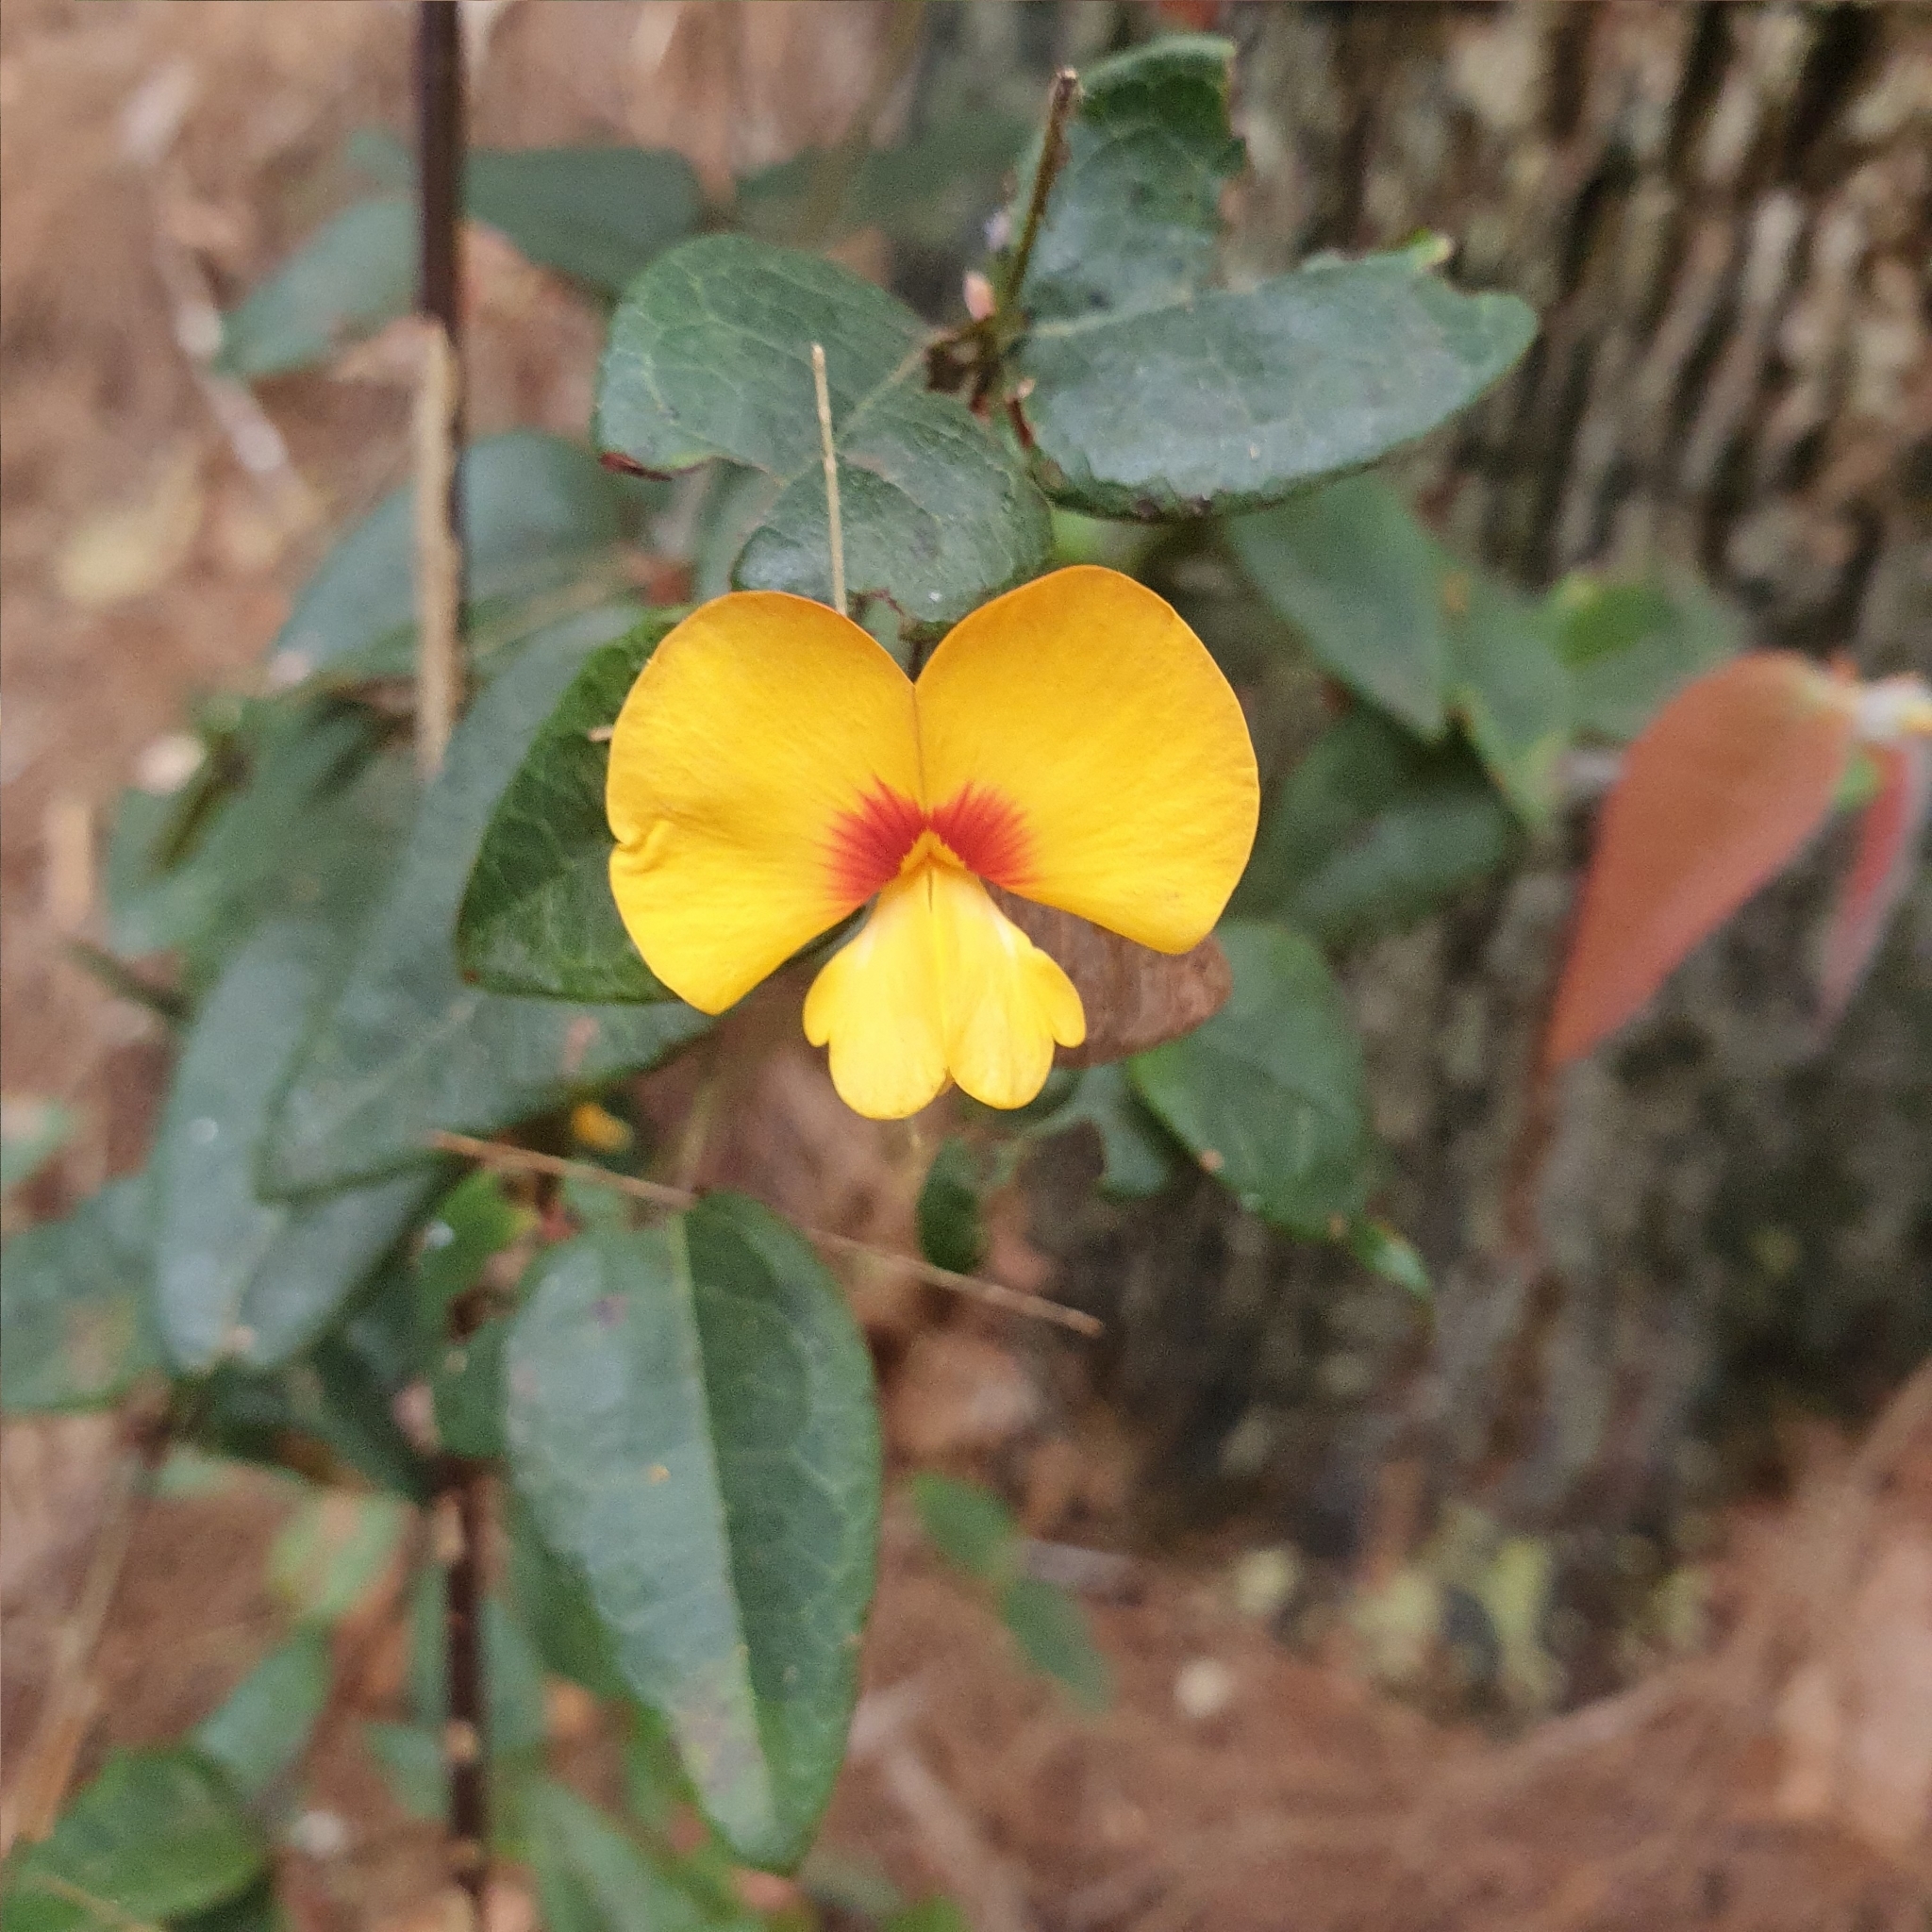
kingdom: Plantae
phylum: Tracheophyta
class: Magnoliopsida
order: Fabales
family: Fabaceae
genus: Platylobium
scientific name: Platylobium formosum
